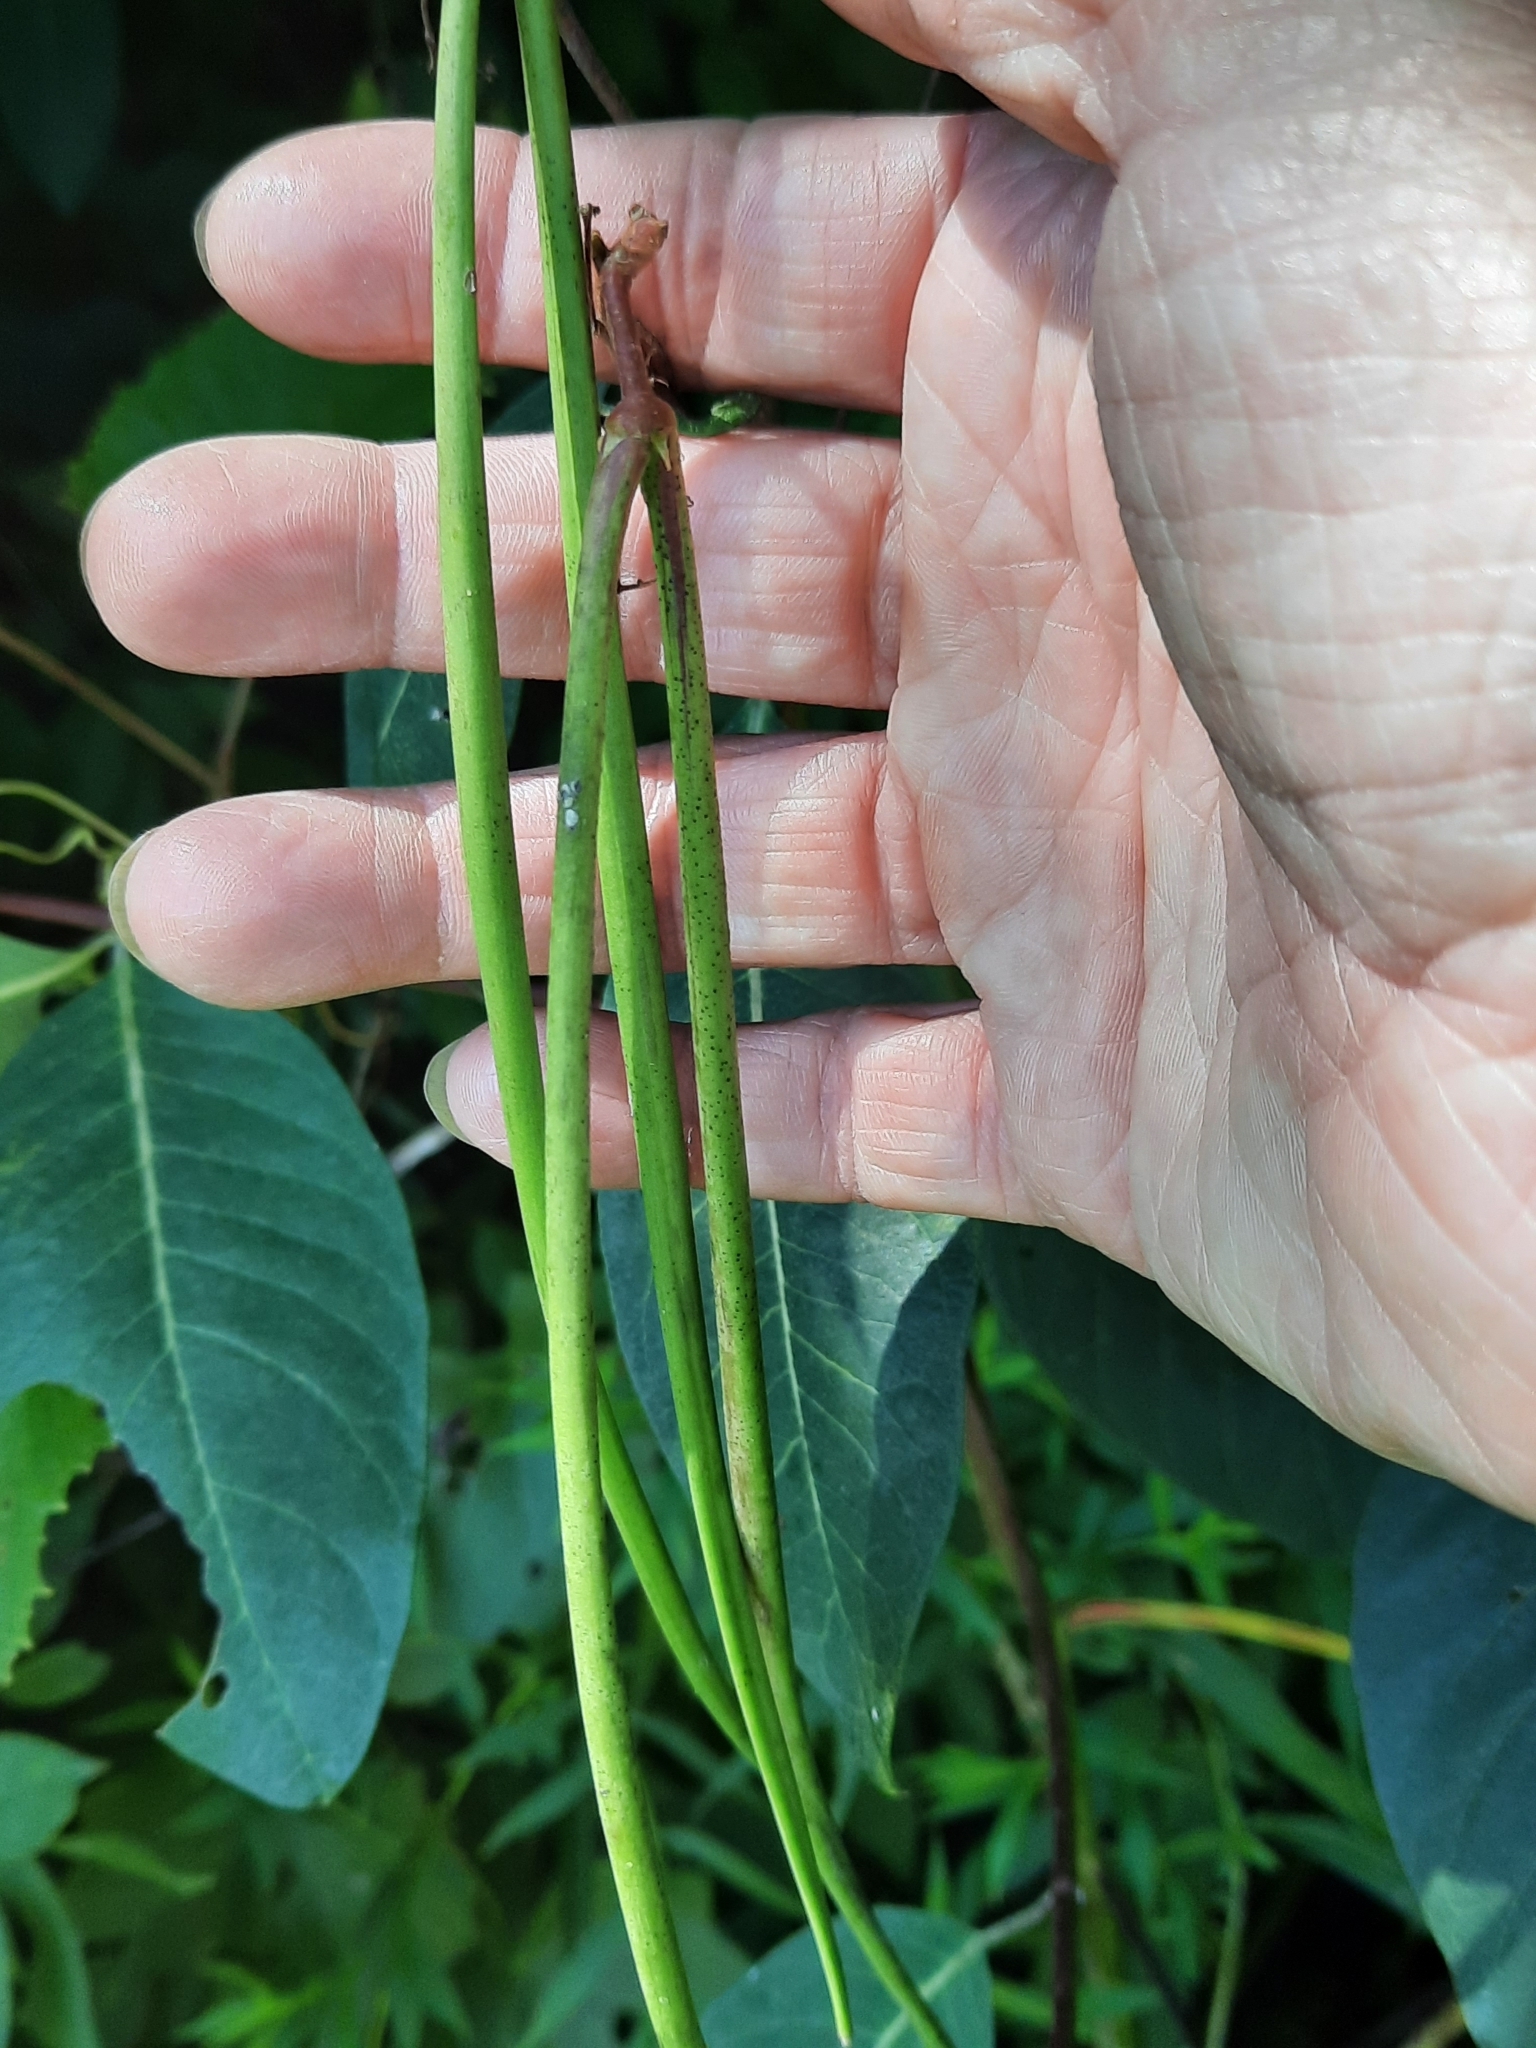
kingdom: Plantae
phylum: Tracheophyta
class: Magnoliopsida
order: Gentianales
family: Apocynaceae
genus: Apocynum
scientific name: Apocynum cannabinum
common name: Hemp dogbane
